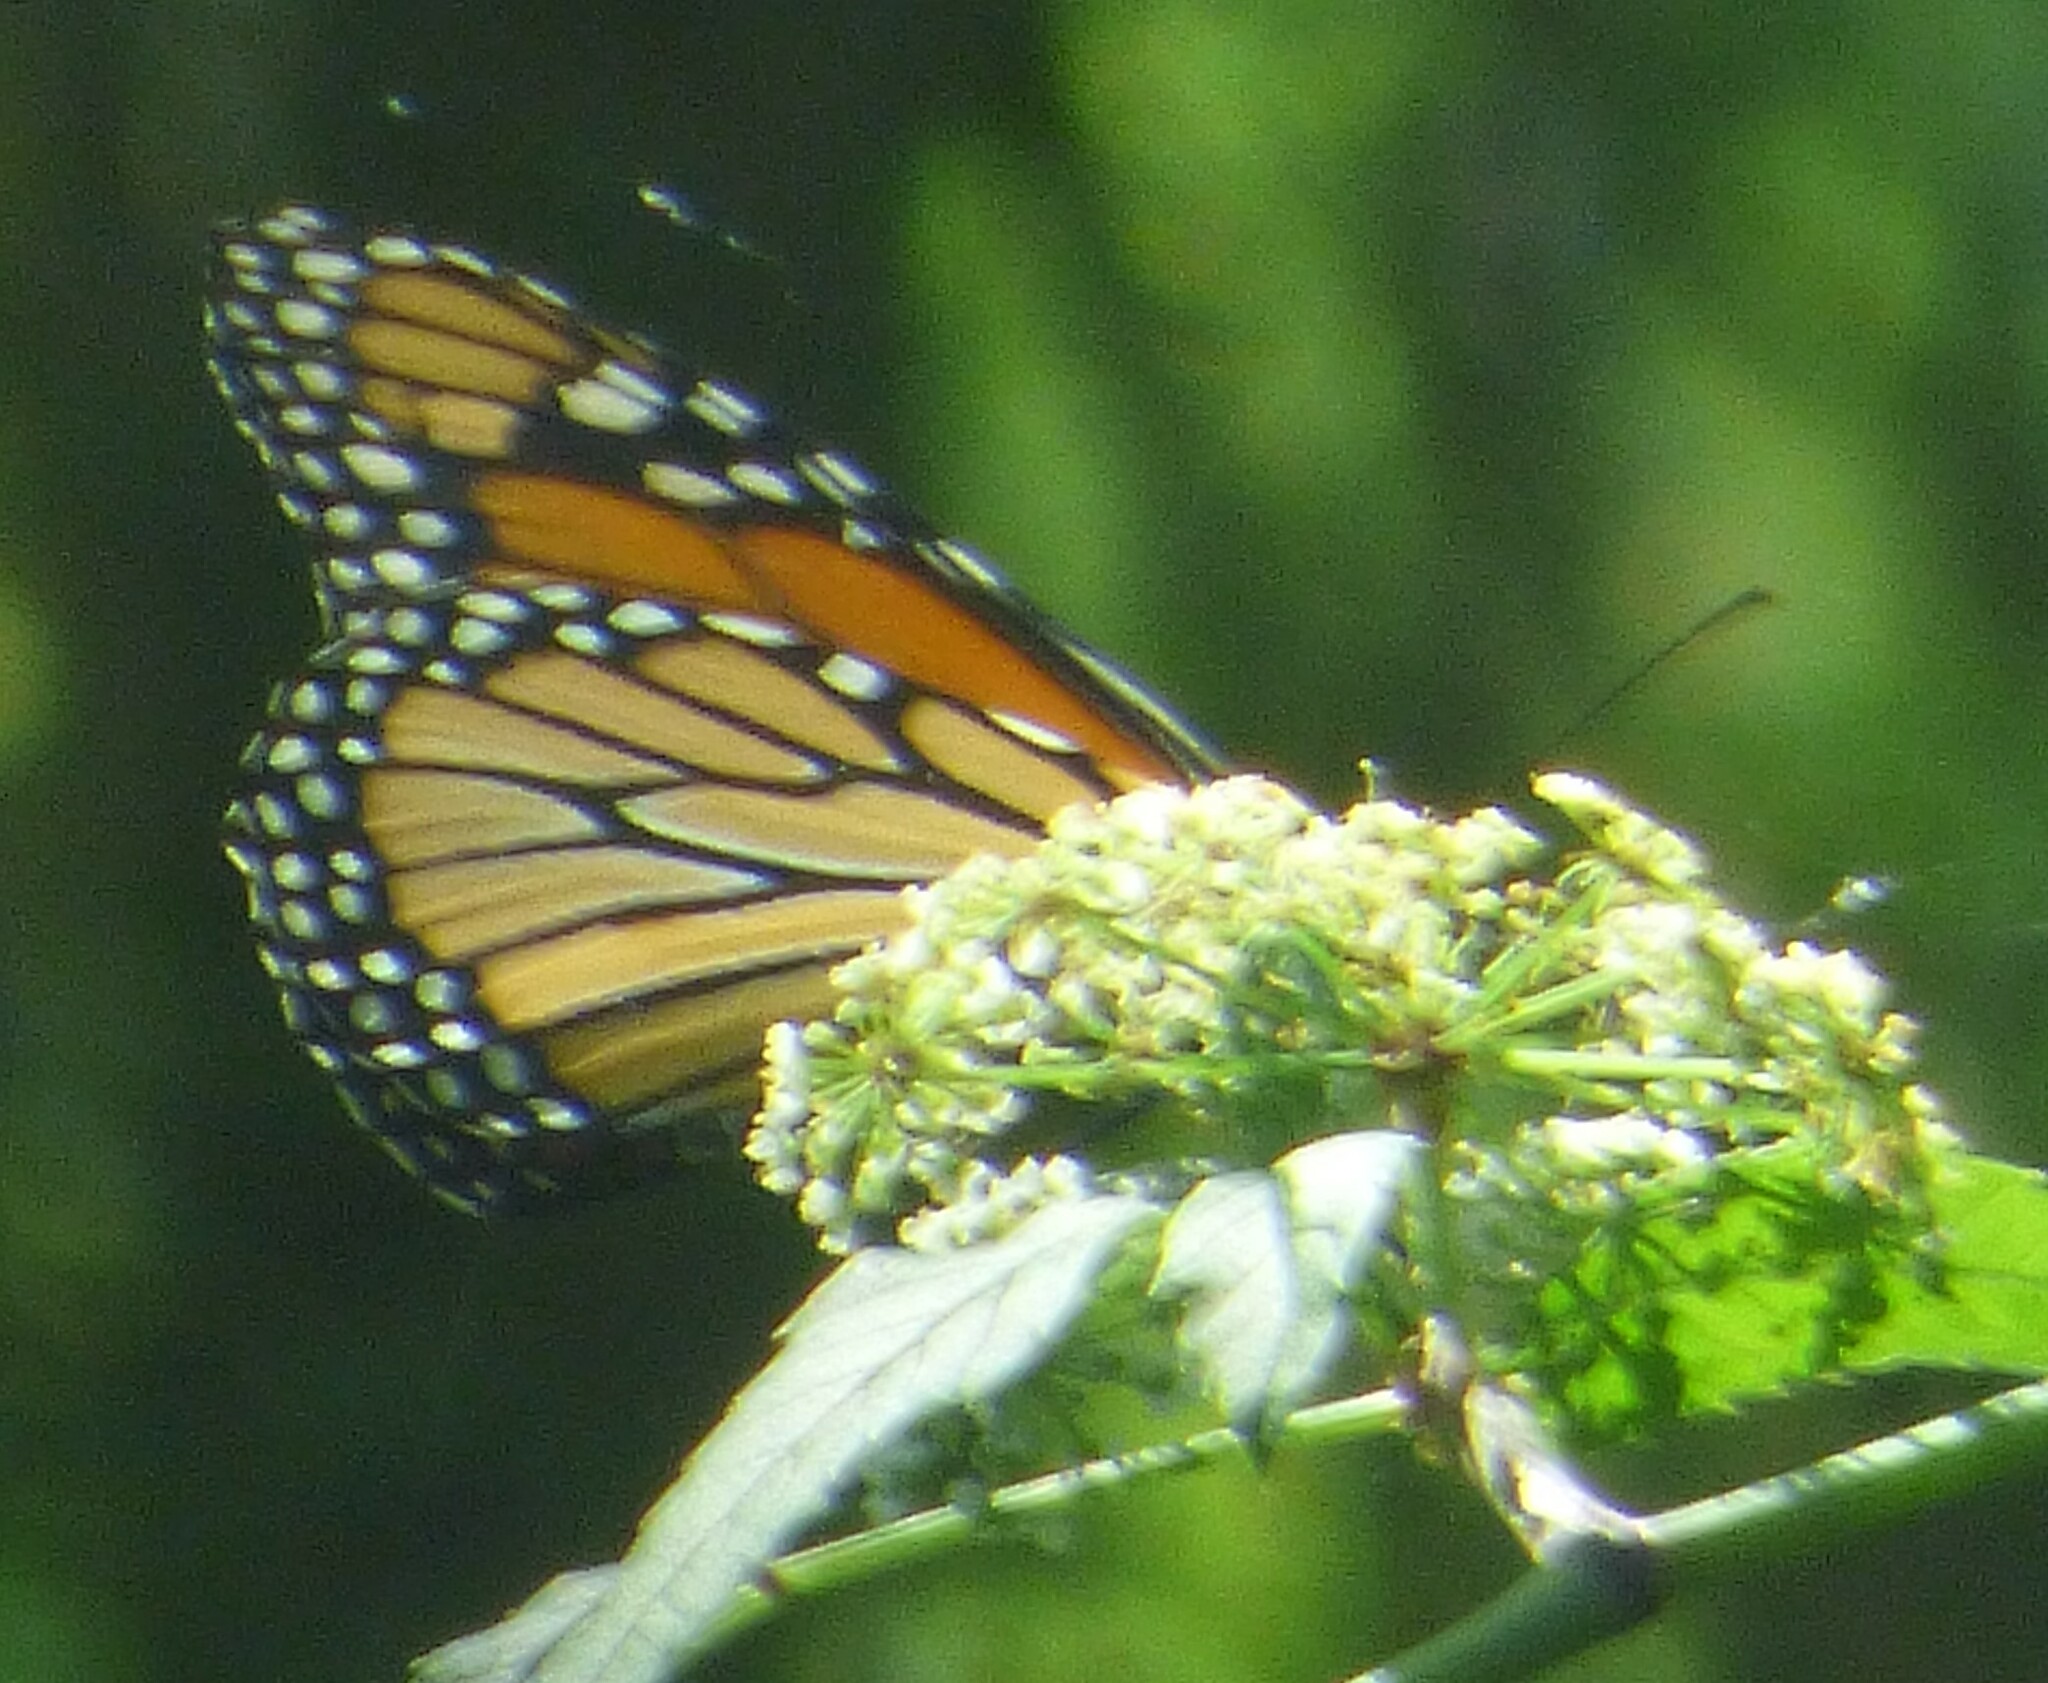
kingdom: Animalia
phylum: Arthropoda
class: Insecta
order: Lepidoptera
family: Nymphalidae
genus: Danaus
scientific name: Danaus plexippus
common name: Monarch
